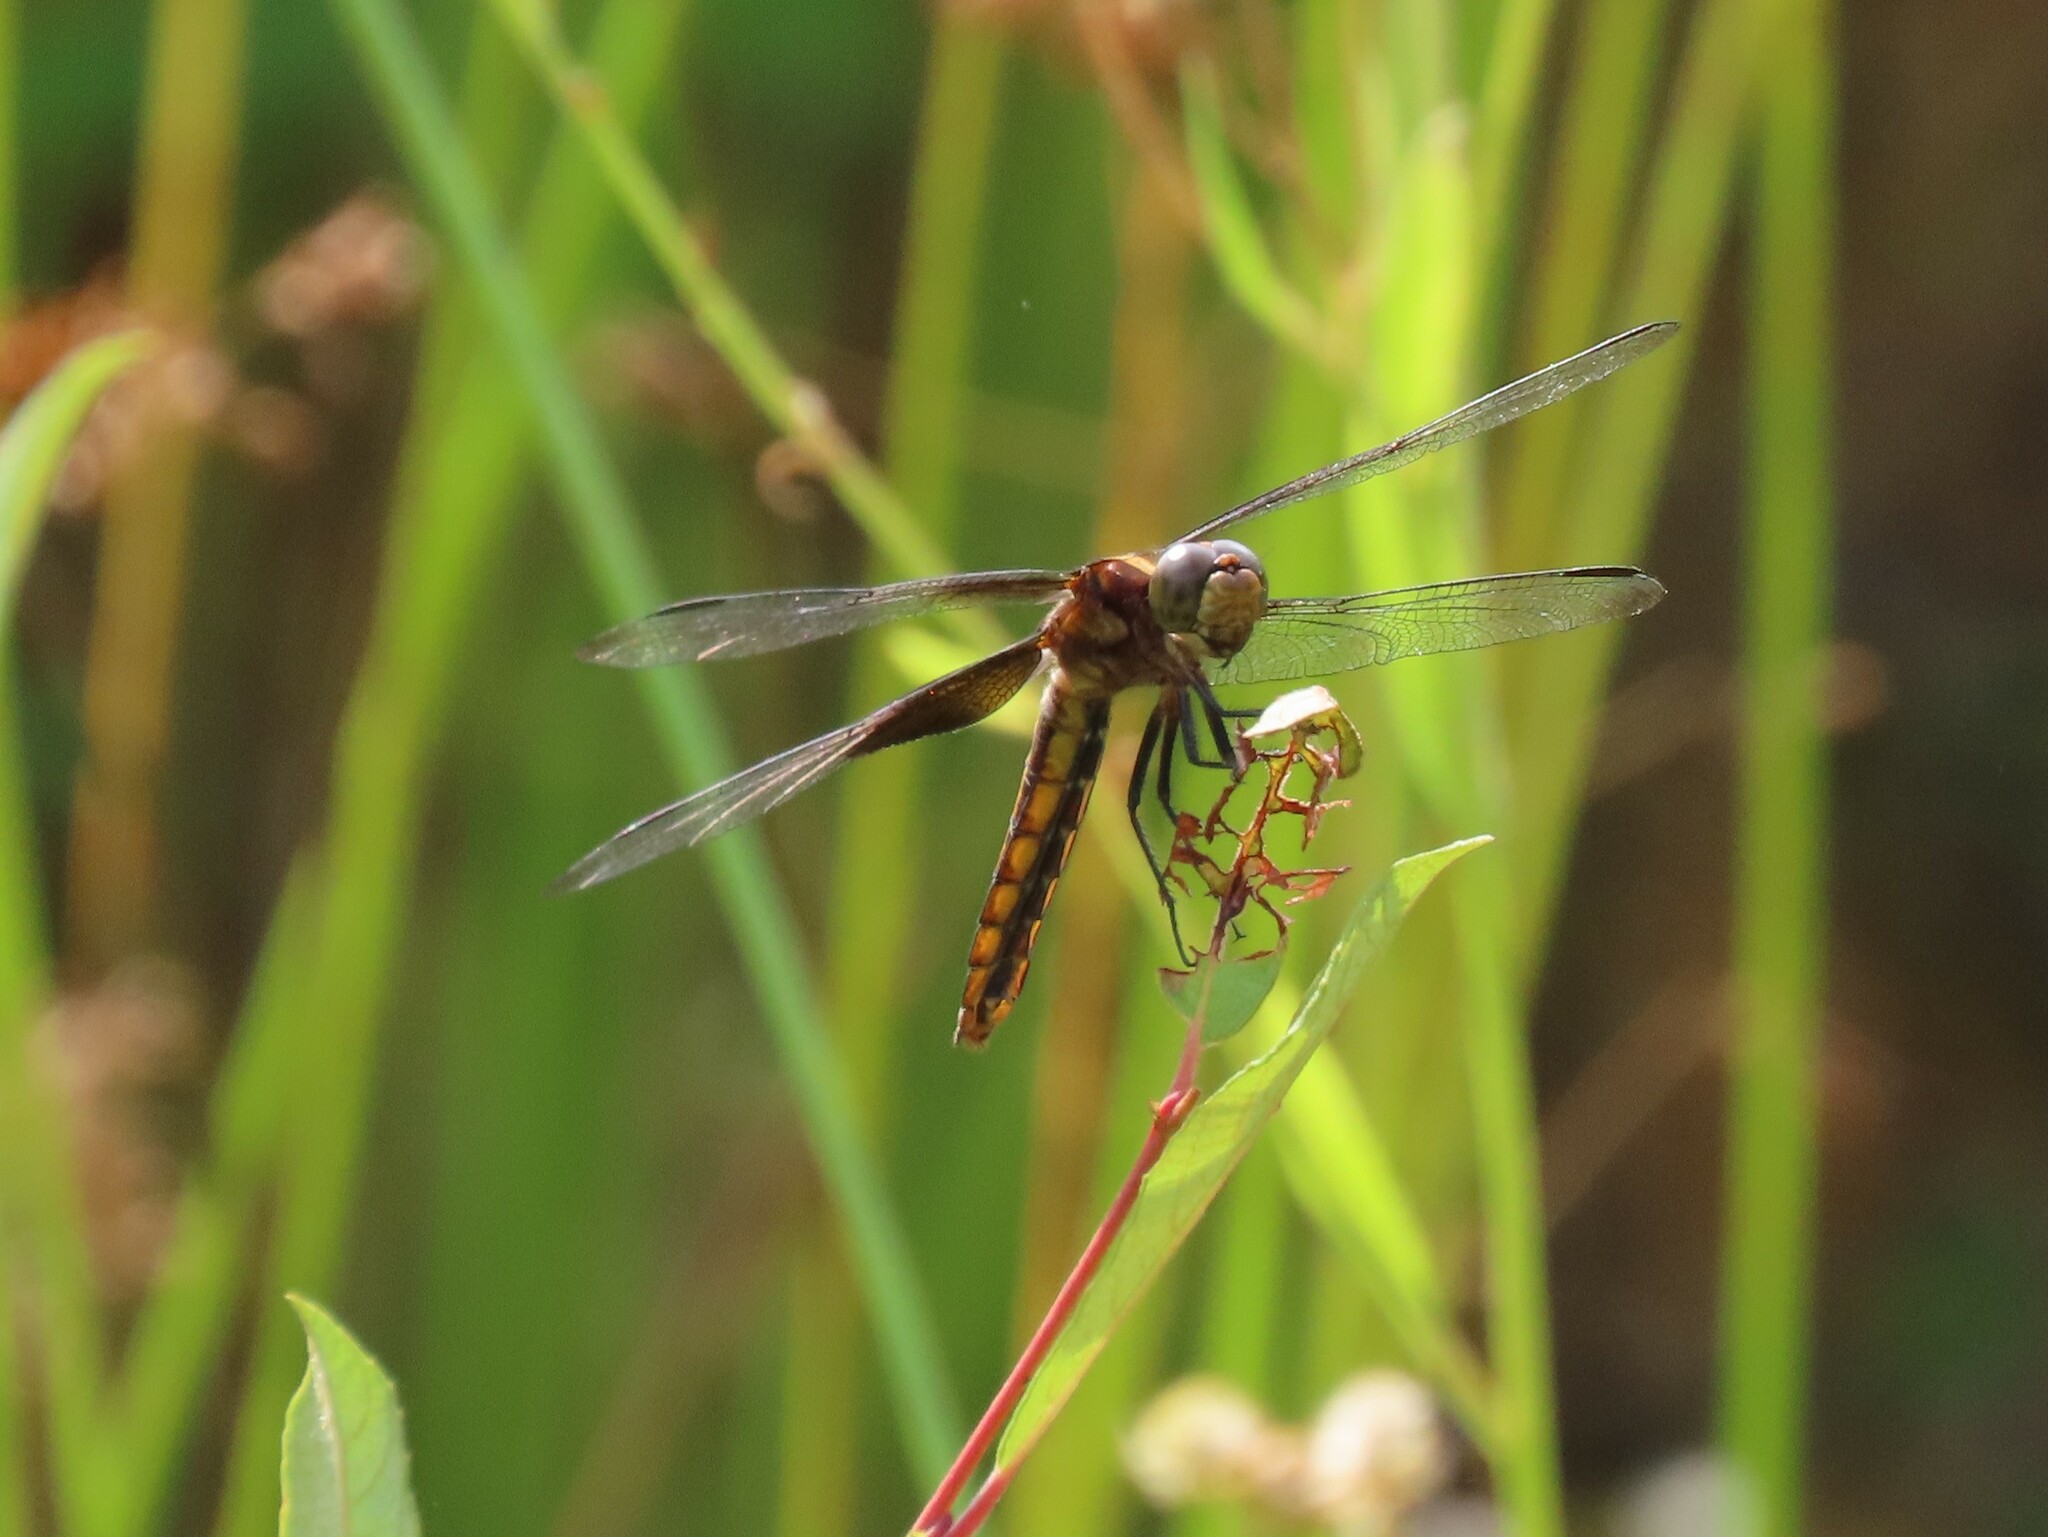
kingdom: Animalia
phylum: Arthropoda
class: Insecta
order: Odonata
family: Libellulidae
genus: Libellula
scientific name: Libellula luctuosa
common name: Widow skimmer
